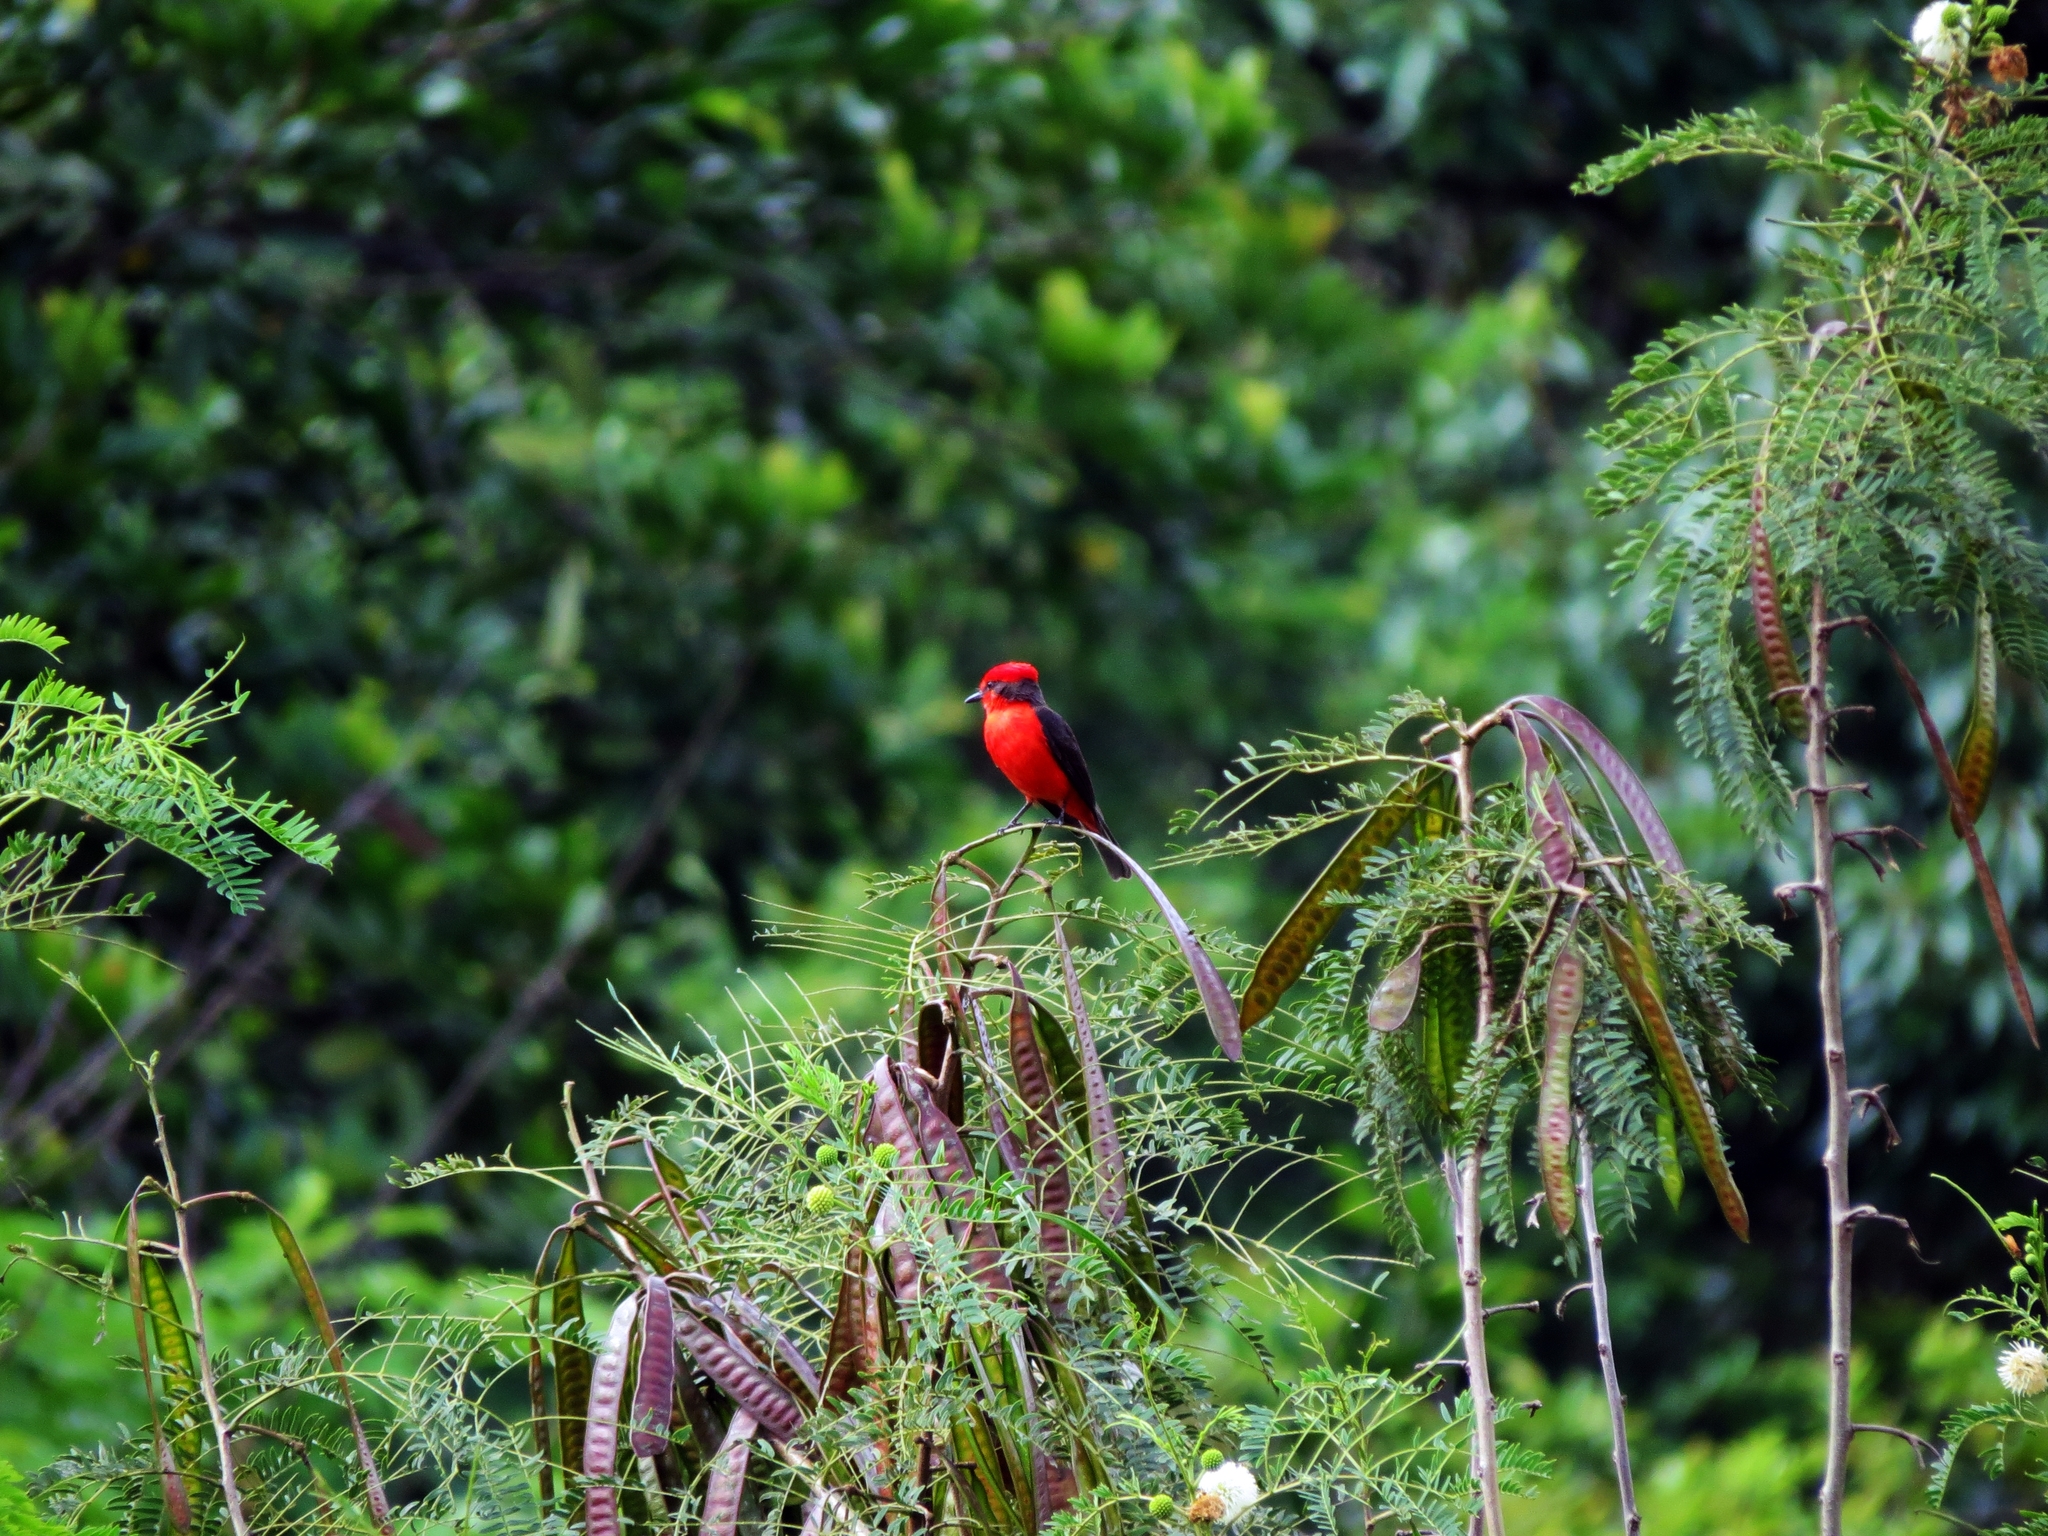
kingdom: Animalia
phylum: Chordata
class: Aves
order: Passeriformes
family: Tyrannidae
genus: Pyrocephalus
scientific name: Pyrocephalus rubinus
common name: Vermilion flycatcher
